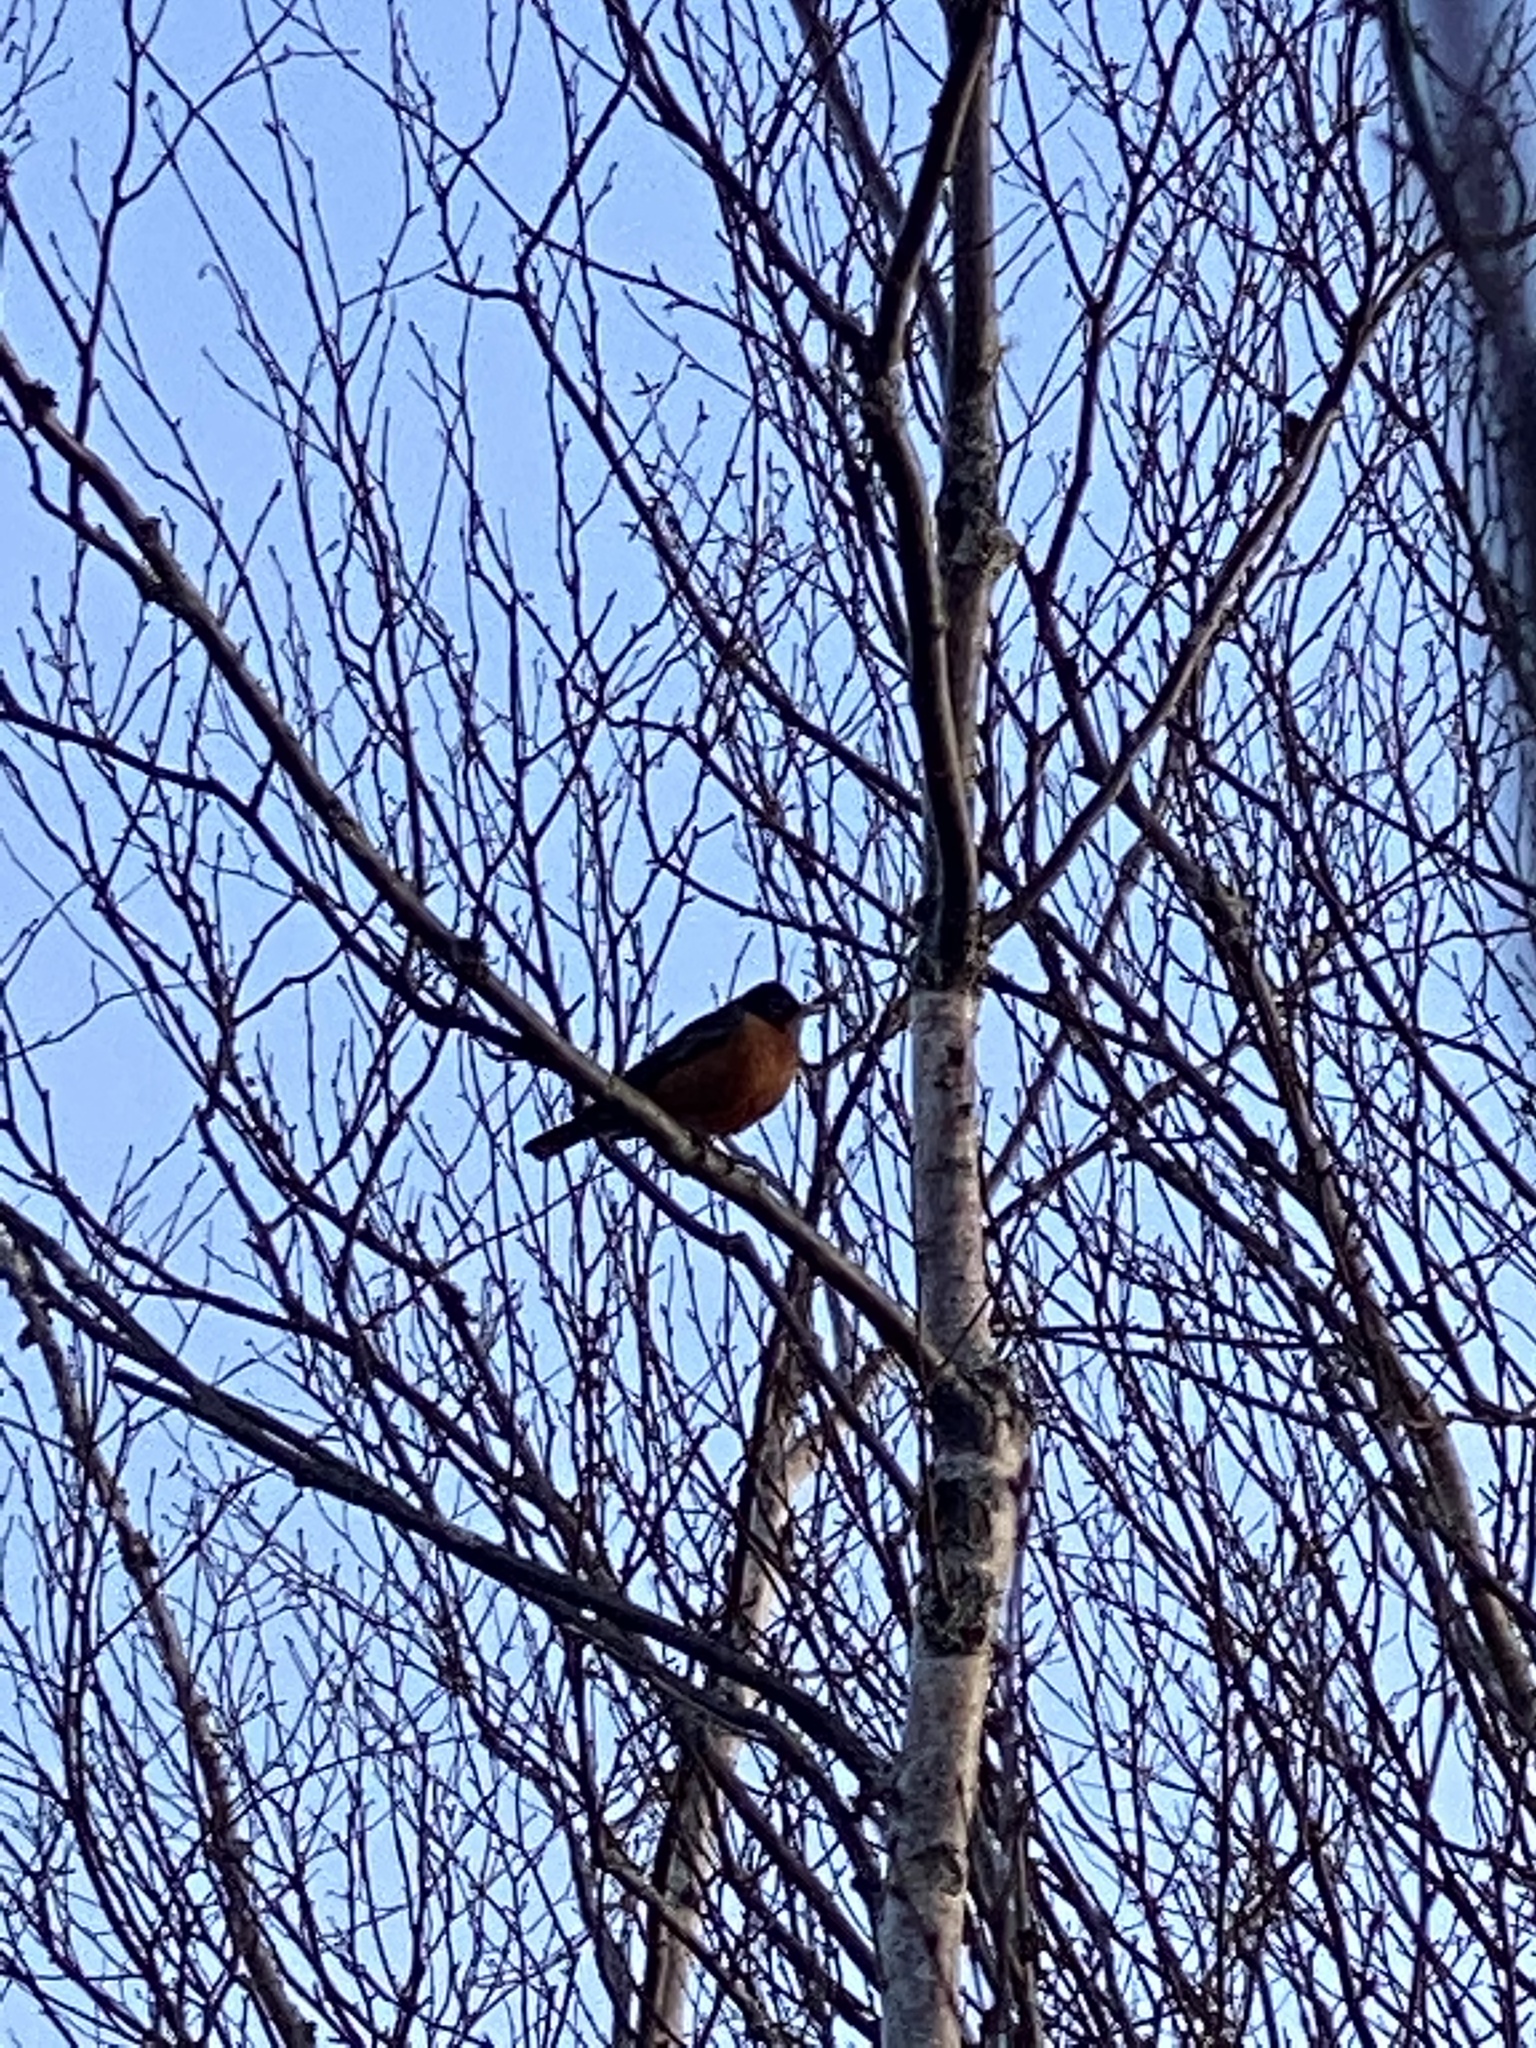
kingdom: Animalia
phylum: Chordata
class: Aves
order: Passeriformes
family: Turdidae
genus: Turdus
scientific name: Turdus migratorius
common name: American robin
